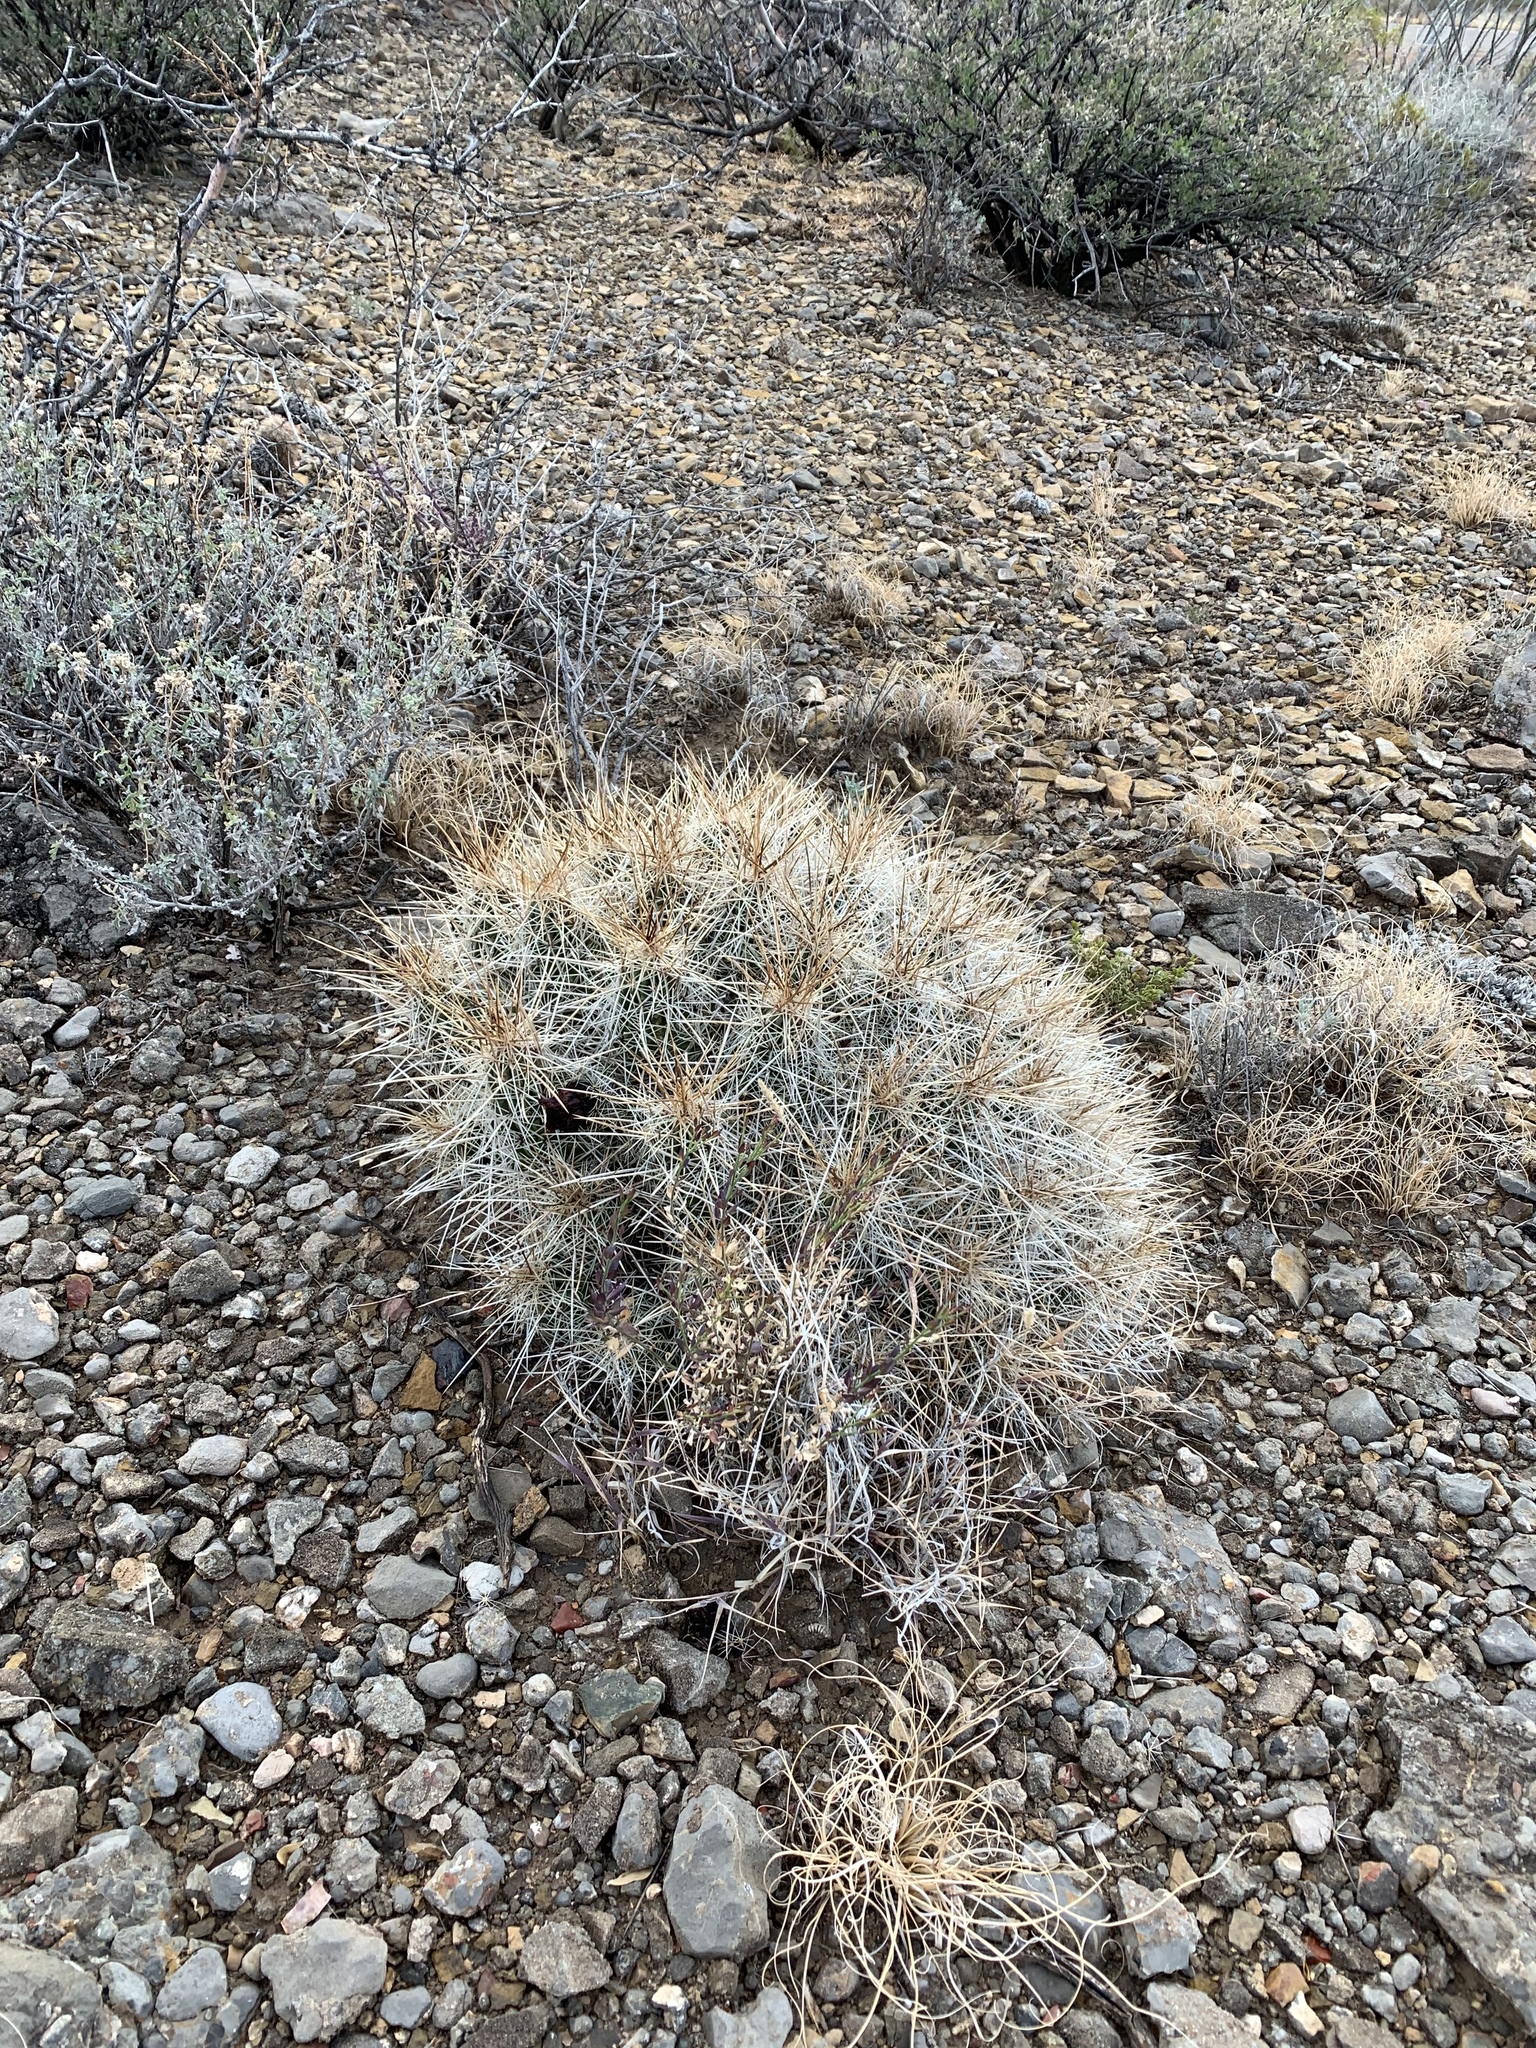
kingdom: Plantae
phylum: Tracheophyta
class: Magnoliopsida
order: Caryophyllales
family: Cactaceae
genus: Echinocereus
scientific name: Echinocereus stramineus
